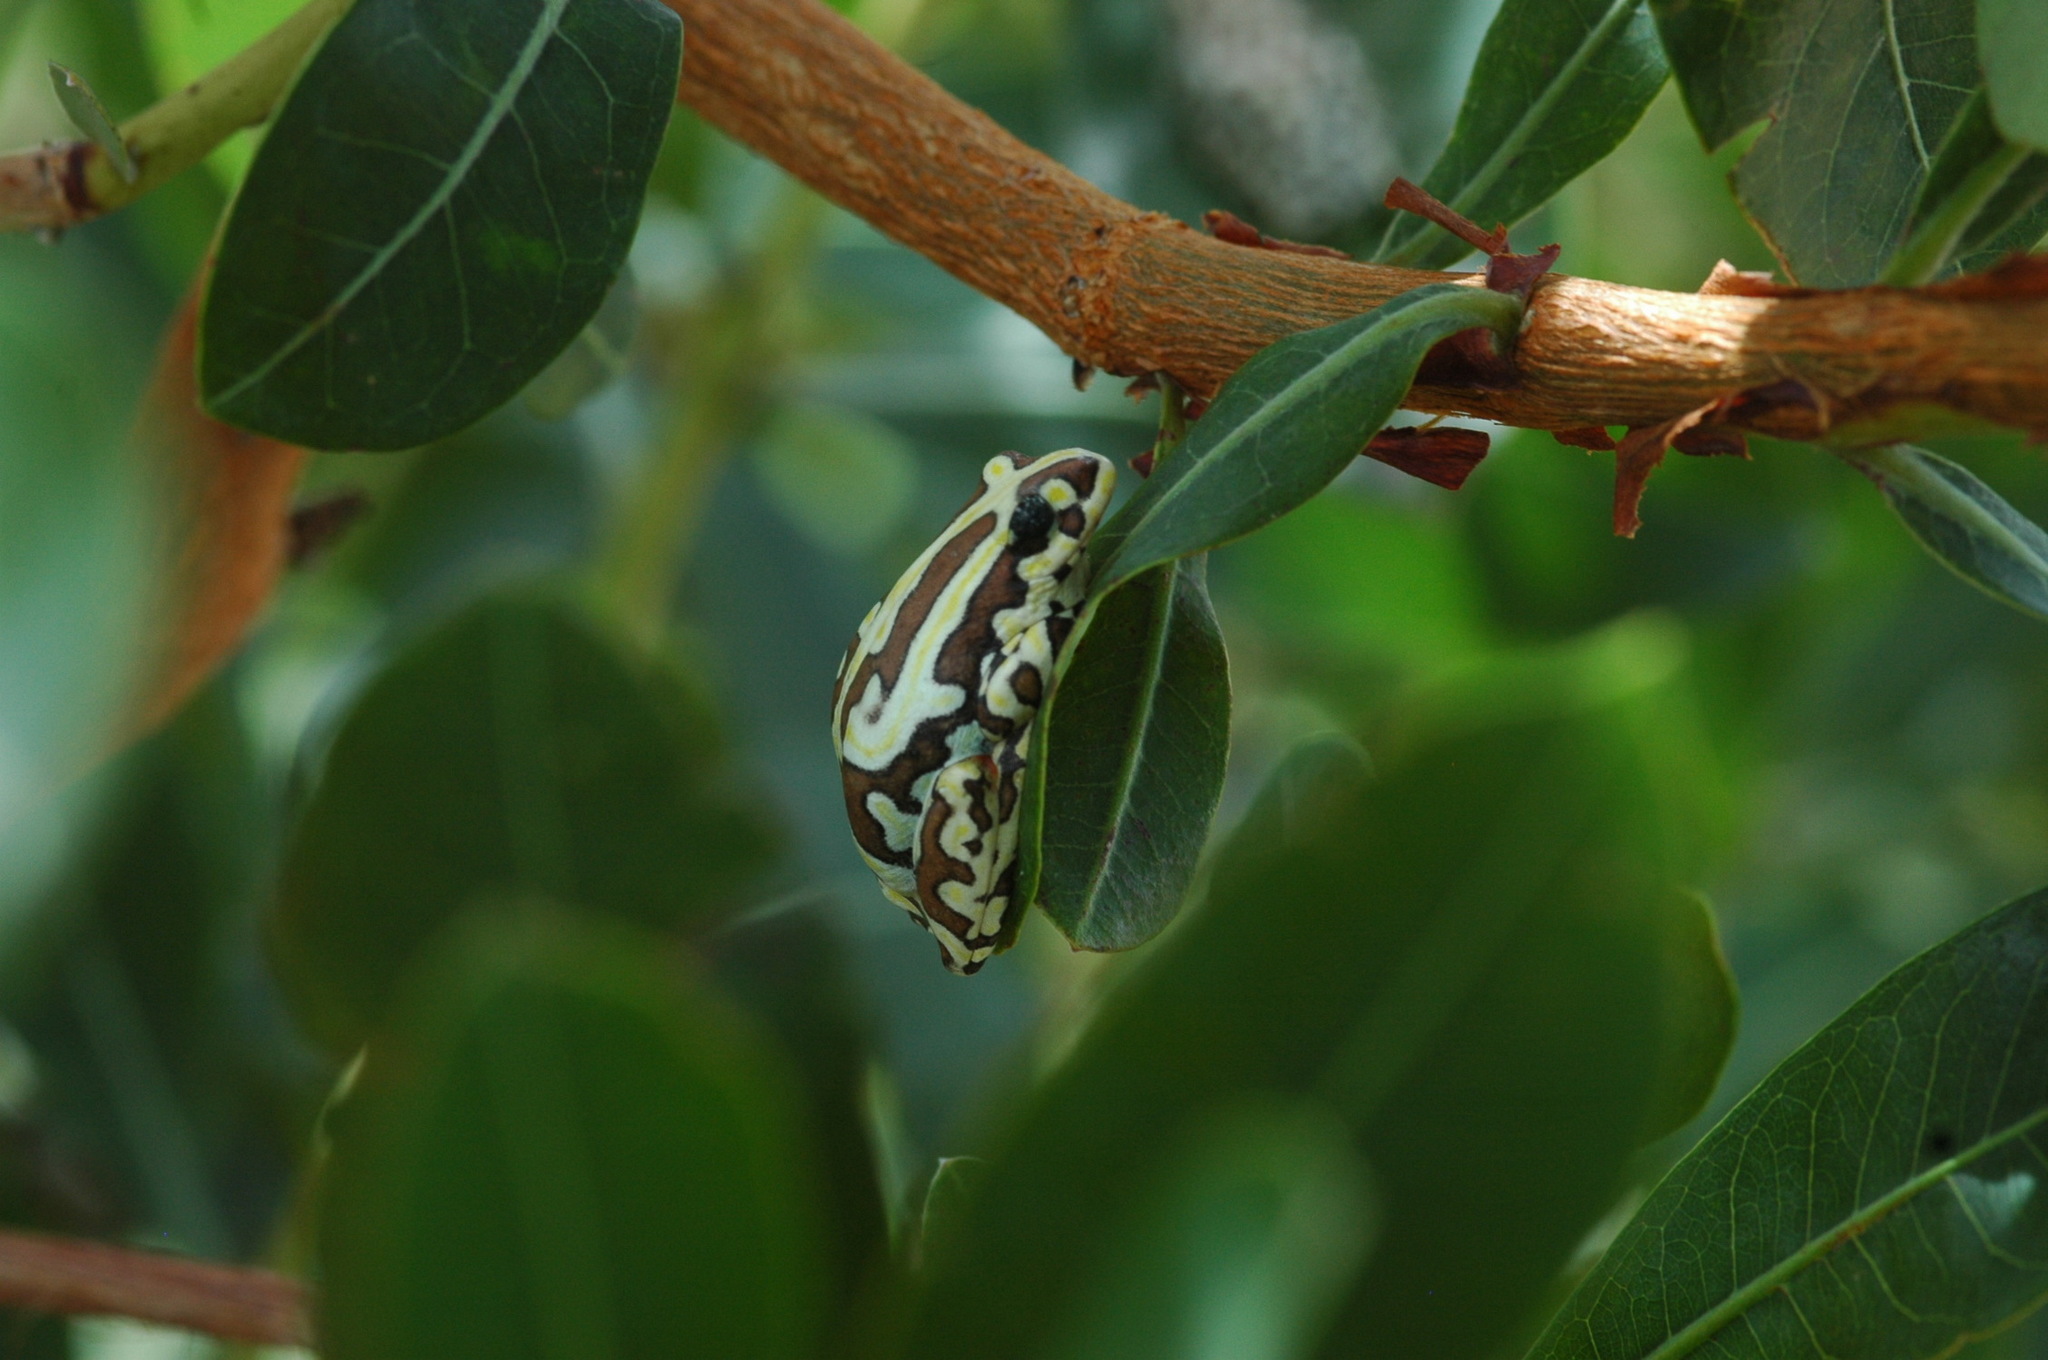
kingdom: Animalia
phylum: Chordata
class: Amphibia
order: Anura
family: Hyperoliidae
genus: Hyperolius
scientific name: Hyperolius parallelus
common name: Angolan reed frog
